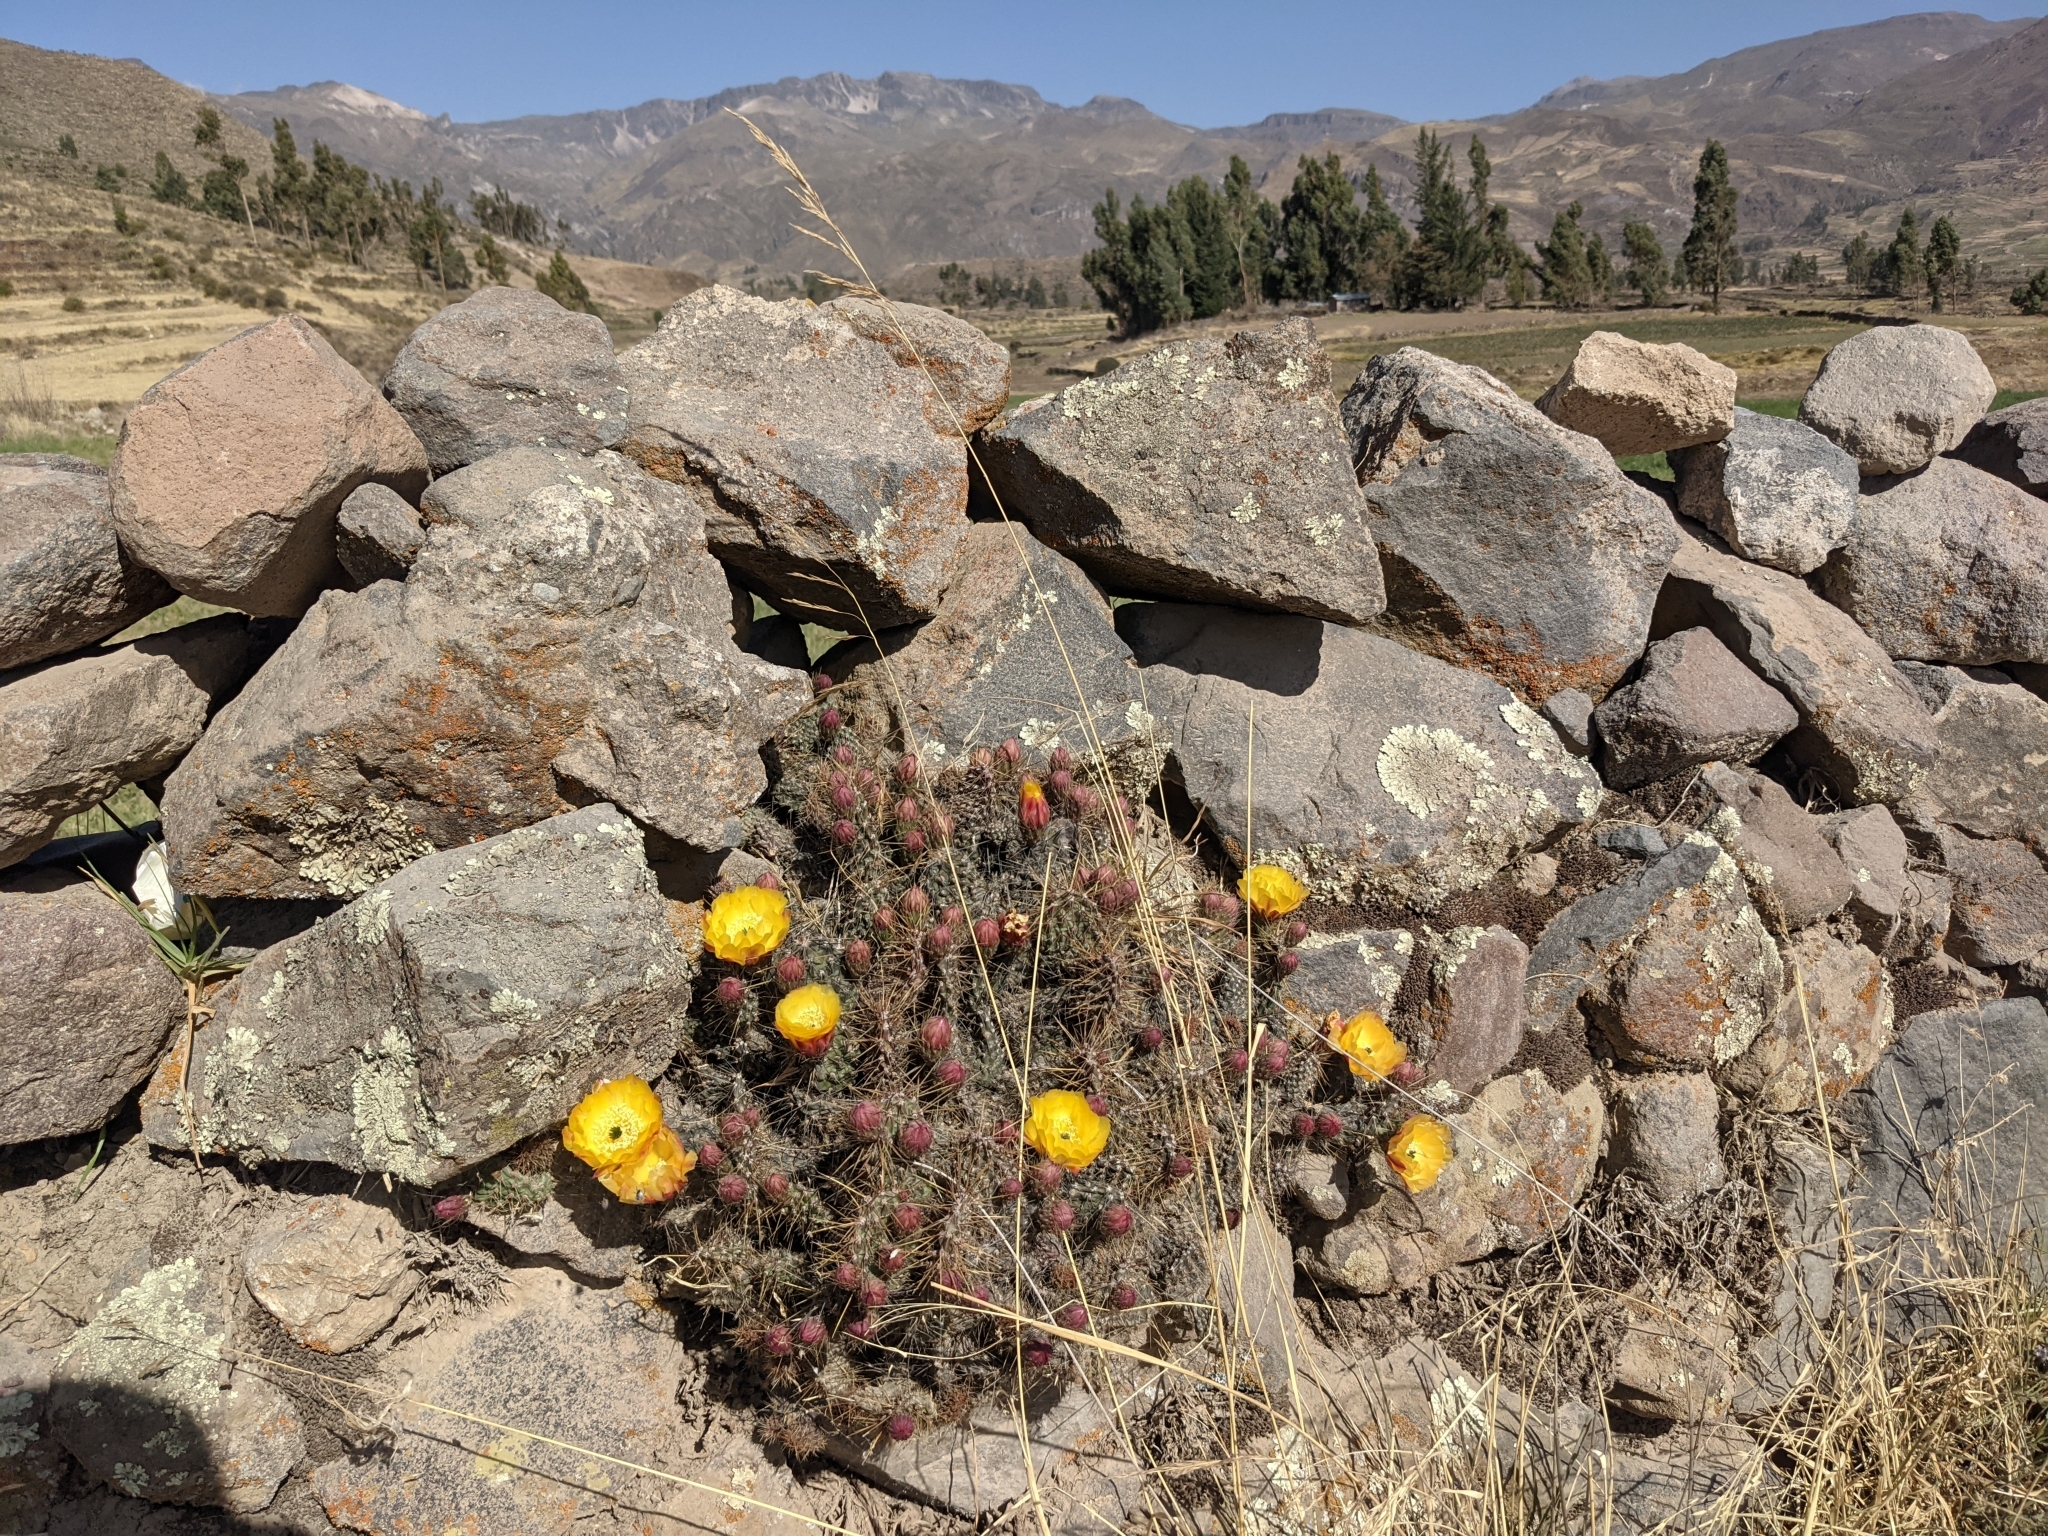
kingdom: Plantae
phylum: Tracheophyta
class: Magnoliopsida
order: Caryophyllales
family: Cactaceae
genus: Airampoa
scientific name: Airampoa soehrensii
